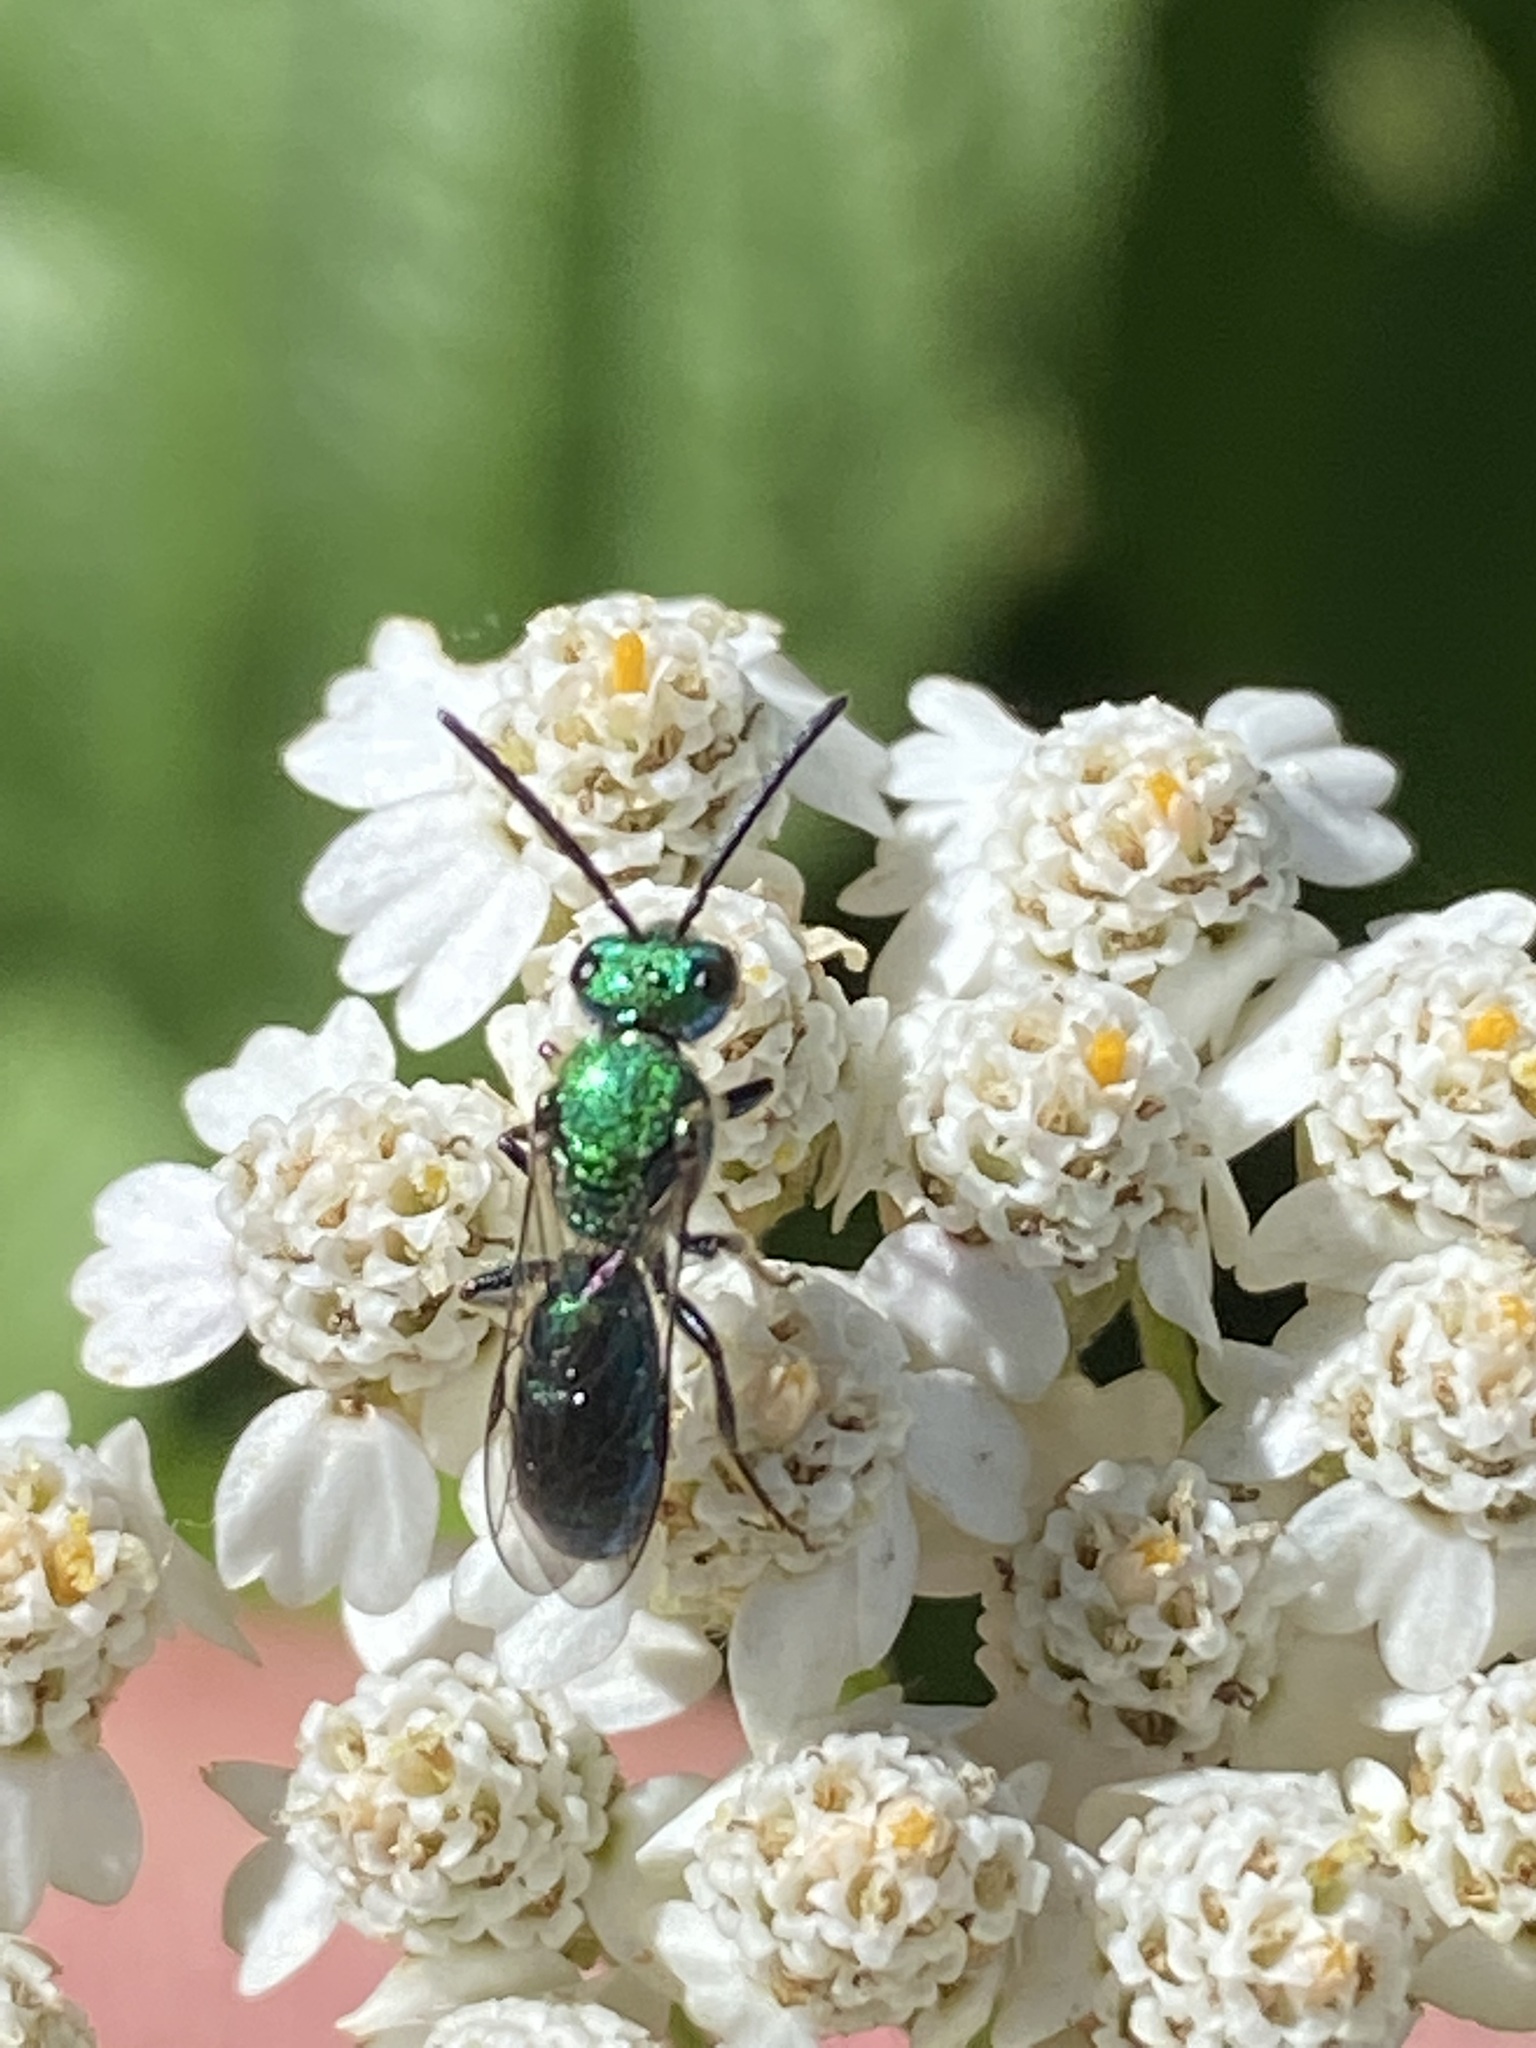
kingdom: Animalia
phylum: Arthropoda
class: Insecta
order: Hymenoptera
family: Halictidae
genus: Augochlora
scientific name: Augochlora pura
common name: Pure green sweat bee
